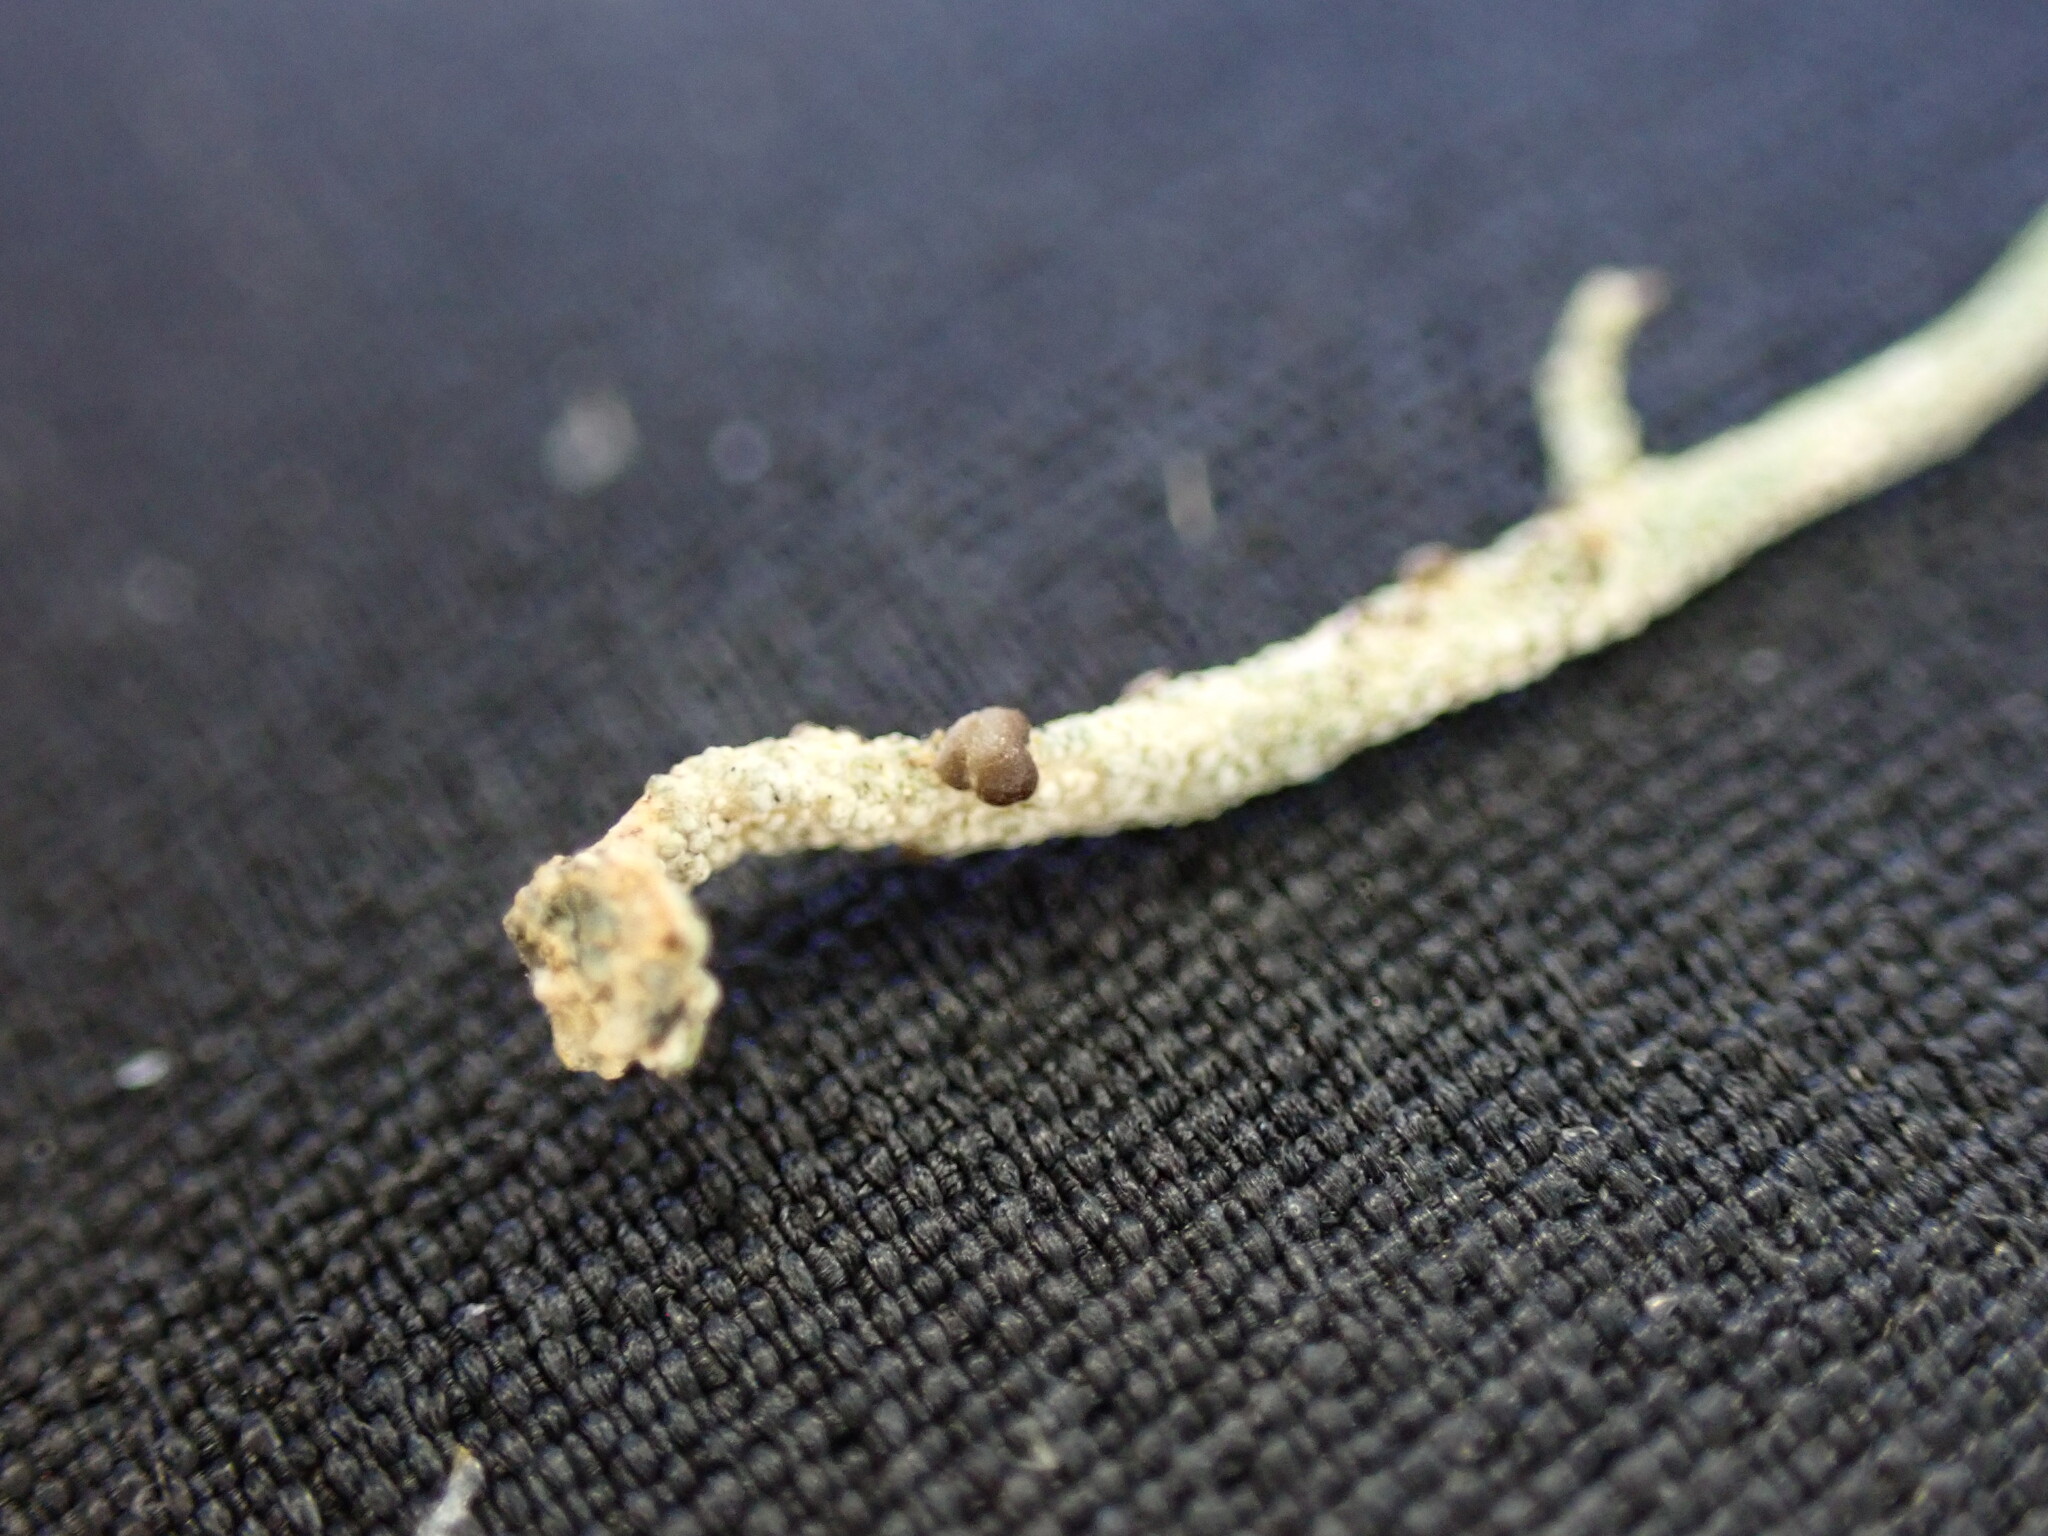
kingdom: Fungi
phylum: Ascomycota
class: Lecanoromycetes
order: Lecanorales
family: Cladoniaceae
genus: Pilophorus
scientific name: Pilophorus acicularis
